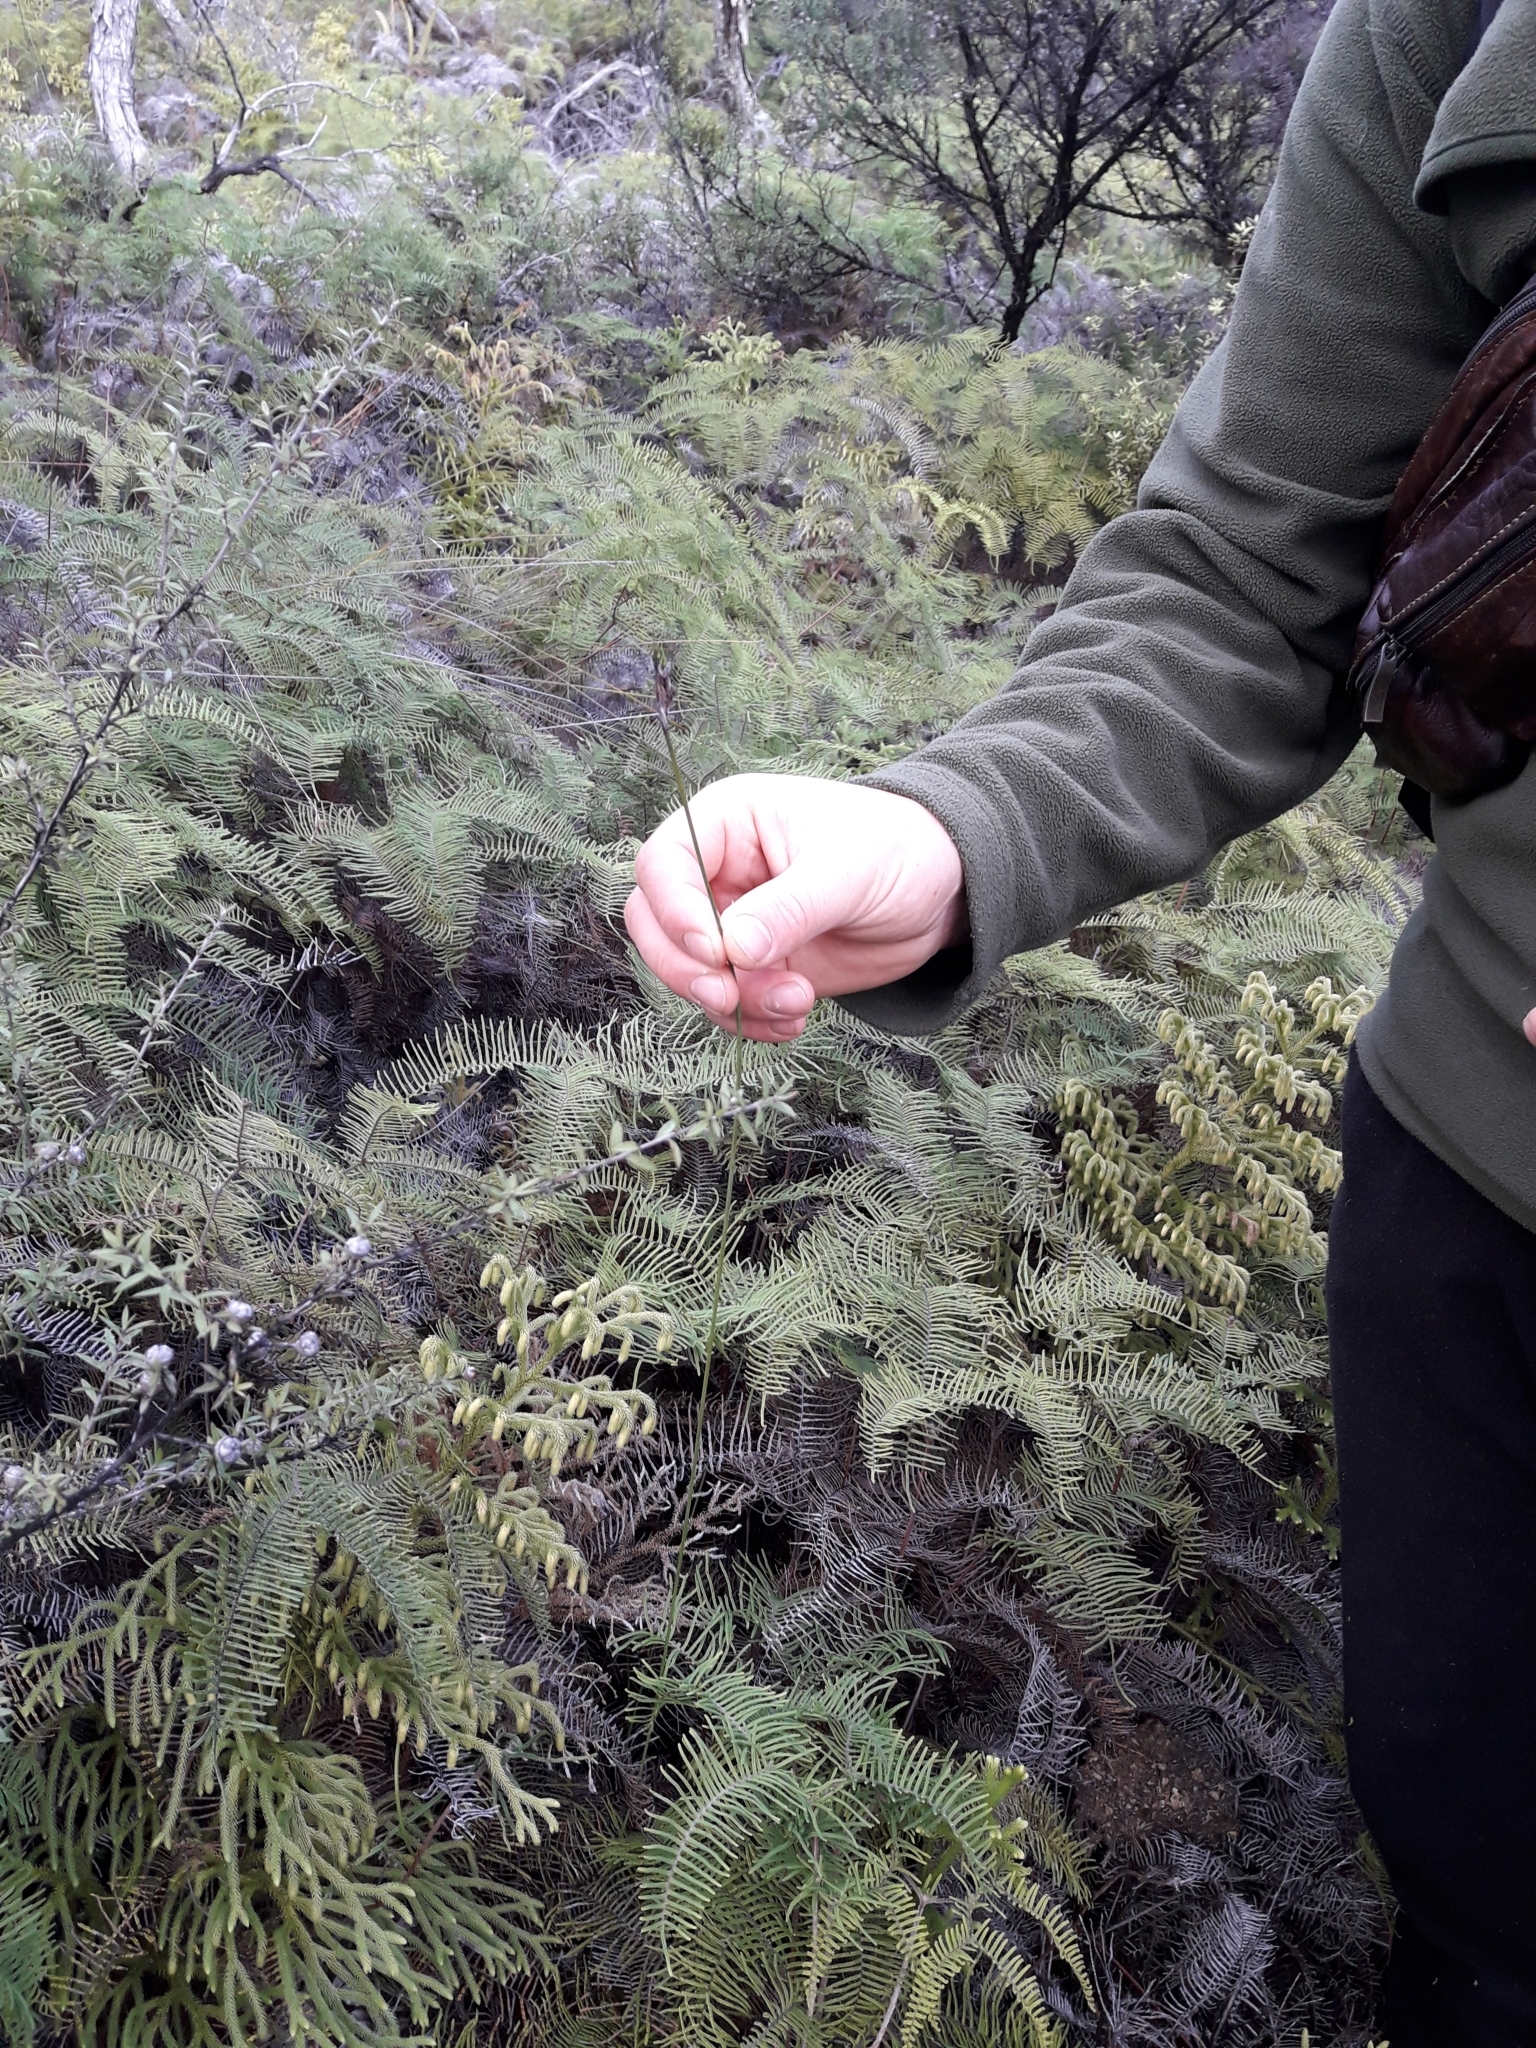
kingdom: Plantae
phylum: Tracheophyta
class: Liliopsida
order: Poales
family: Cyperaceae
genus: Lepidosperma
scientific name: Lepidosperma australe
